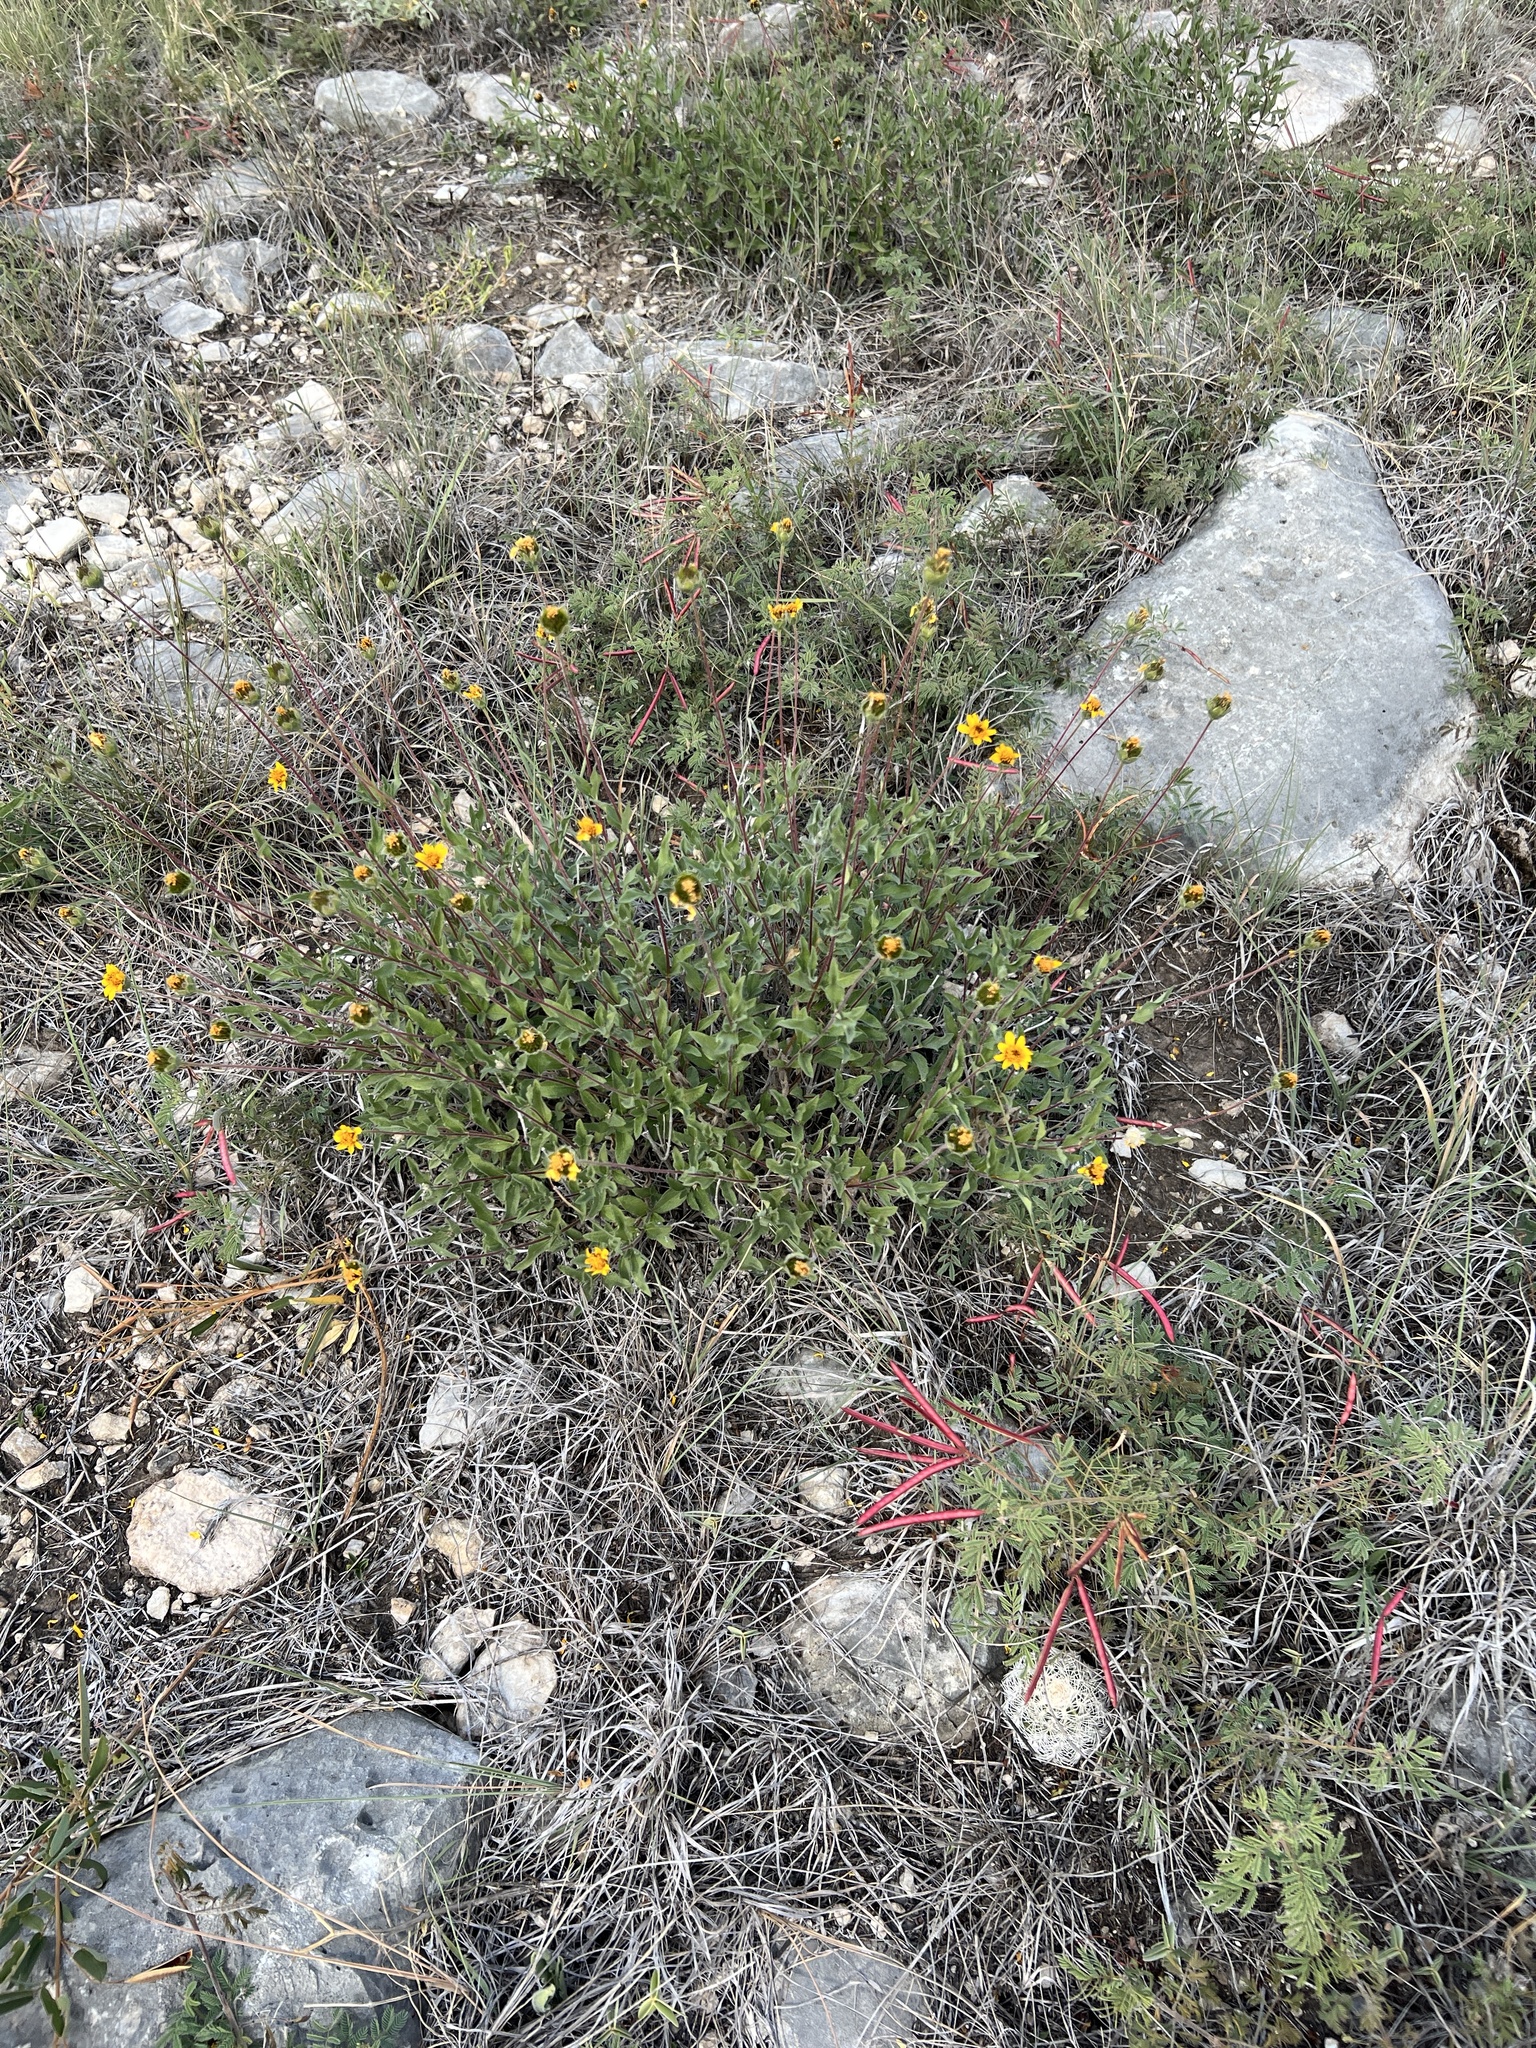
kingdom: Plantae
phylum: Tracheophyta
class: Magnoliopsida
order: Asterales
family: Asteraceae
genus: Wedelia
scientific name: Wedelia acapulcensis
